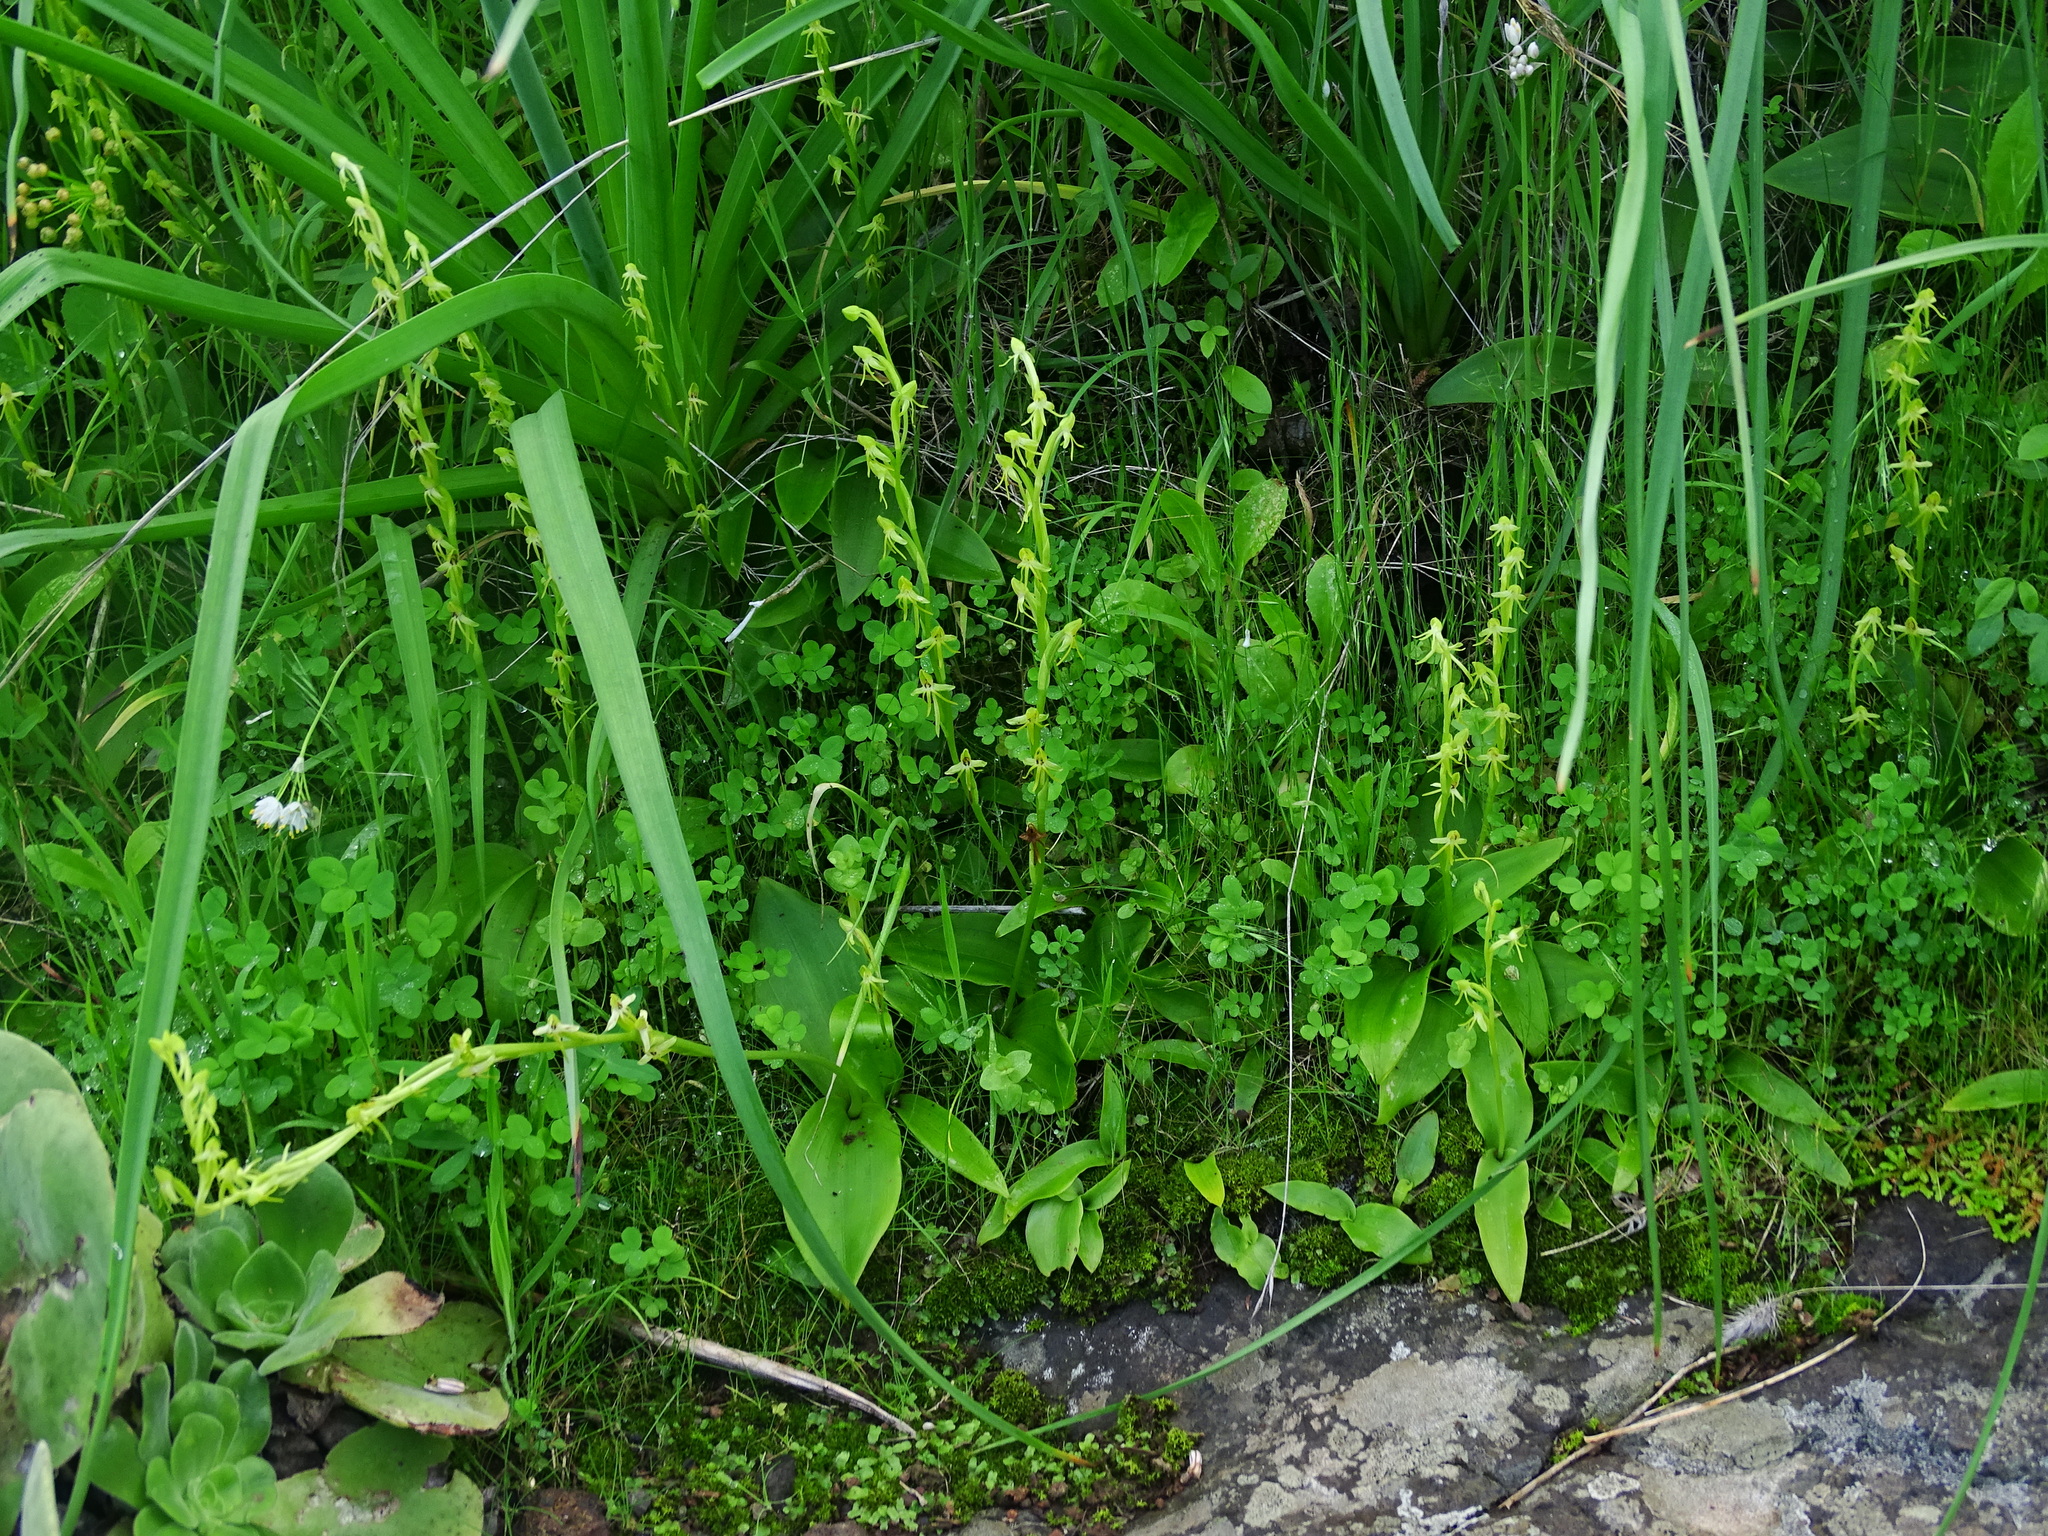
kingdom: Plantae
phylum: Tracheophyta
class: Liliopsida
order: Asparagales
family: Orchidaceae
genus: Habenaria
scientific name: Habenaria tridactylites
